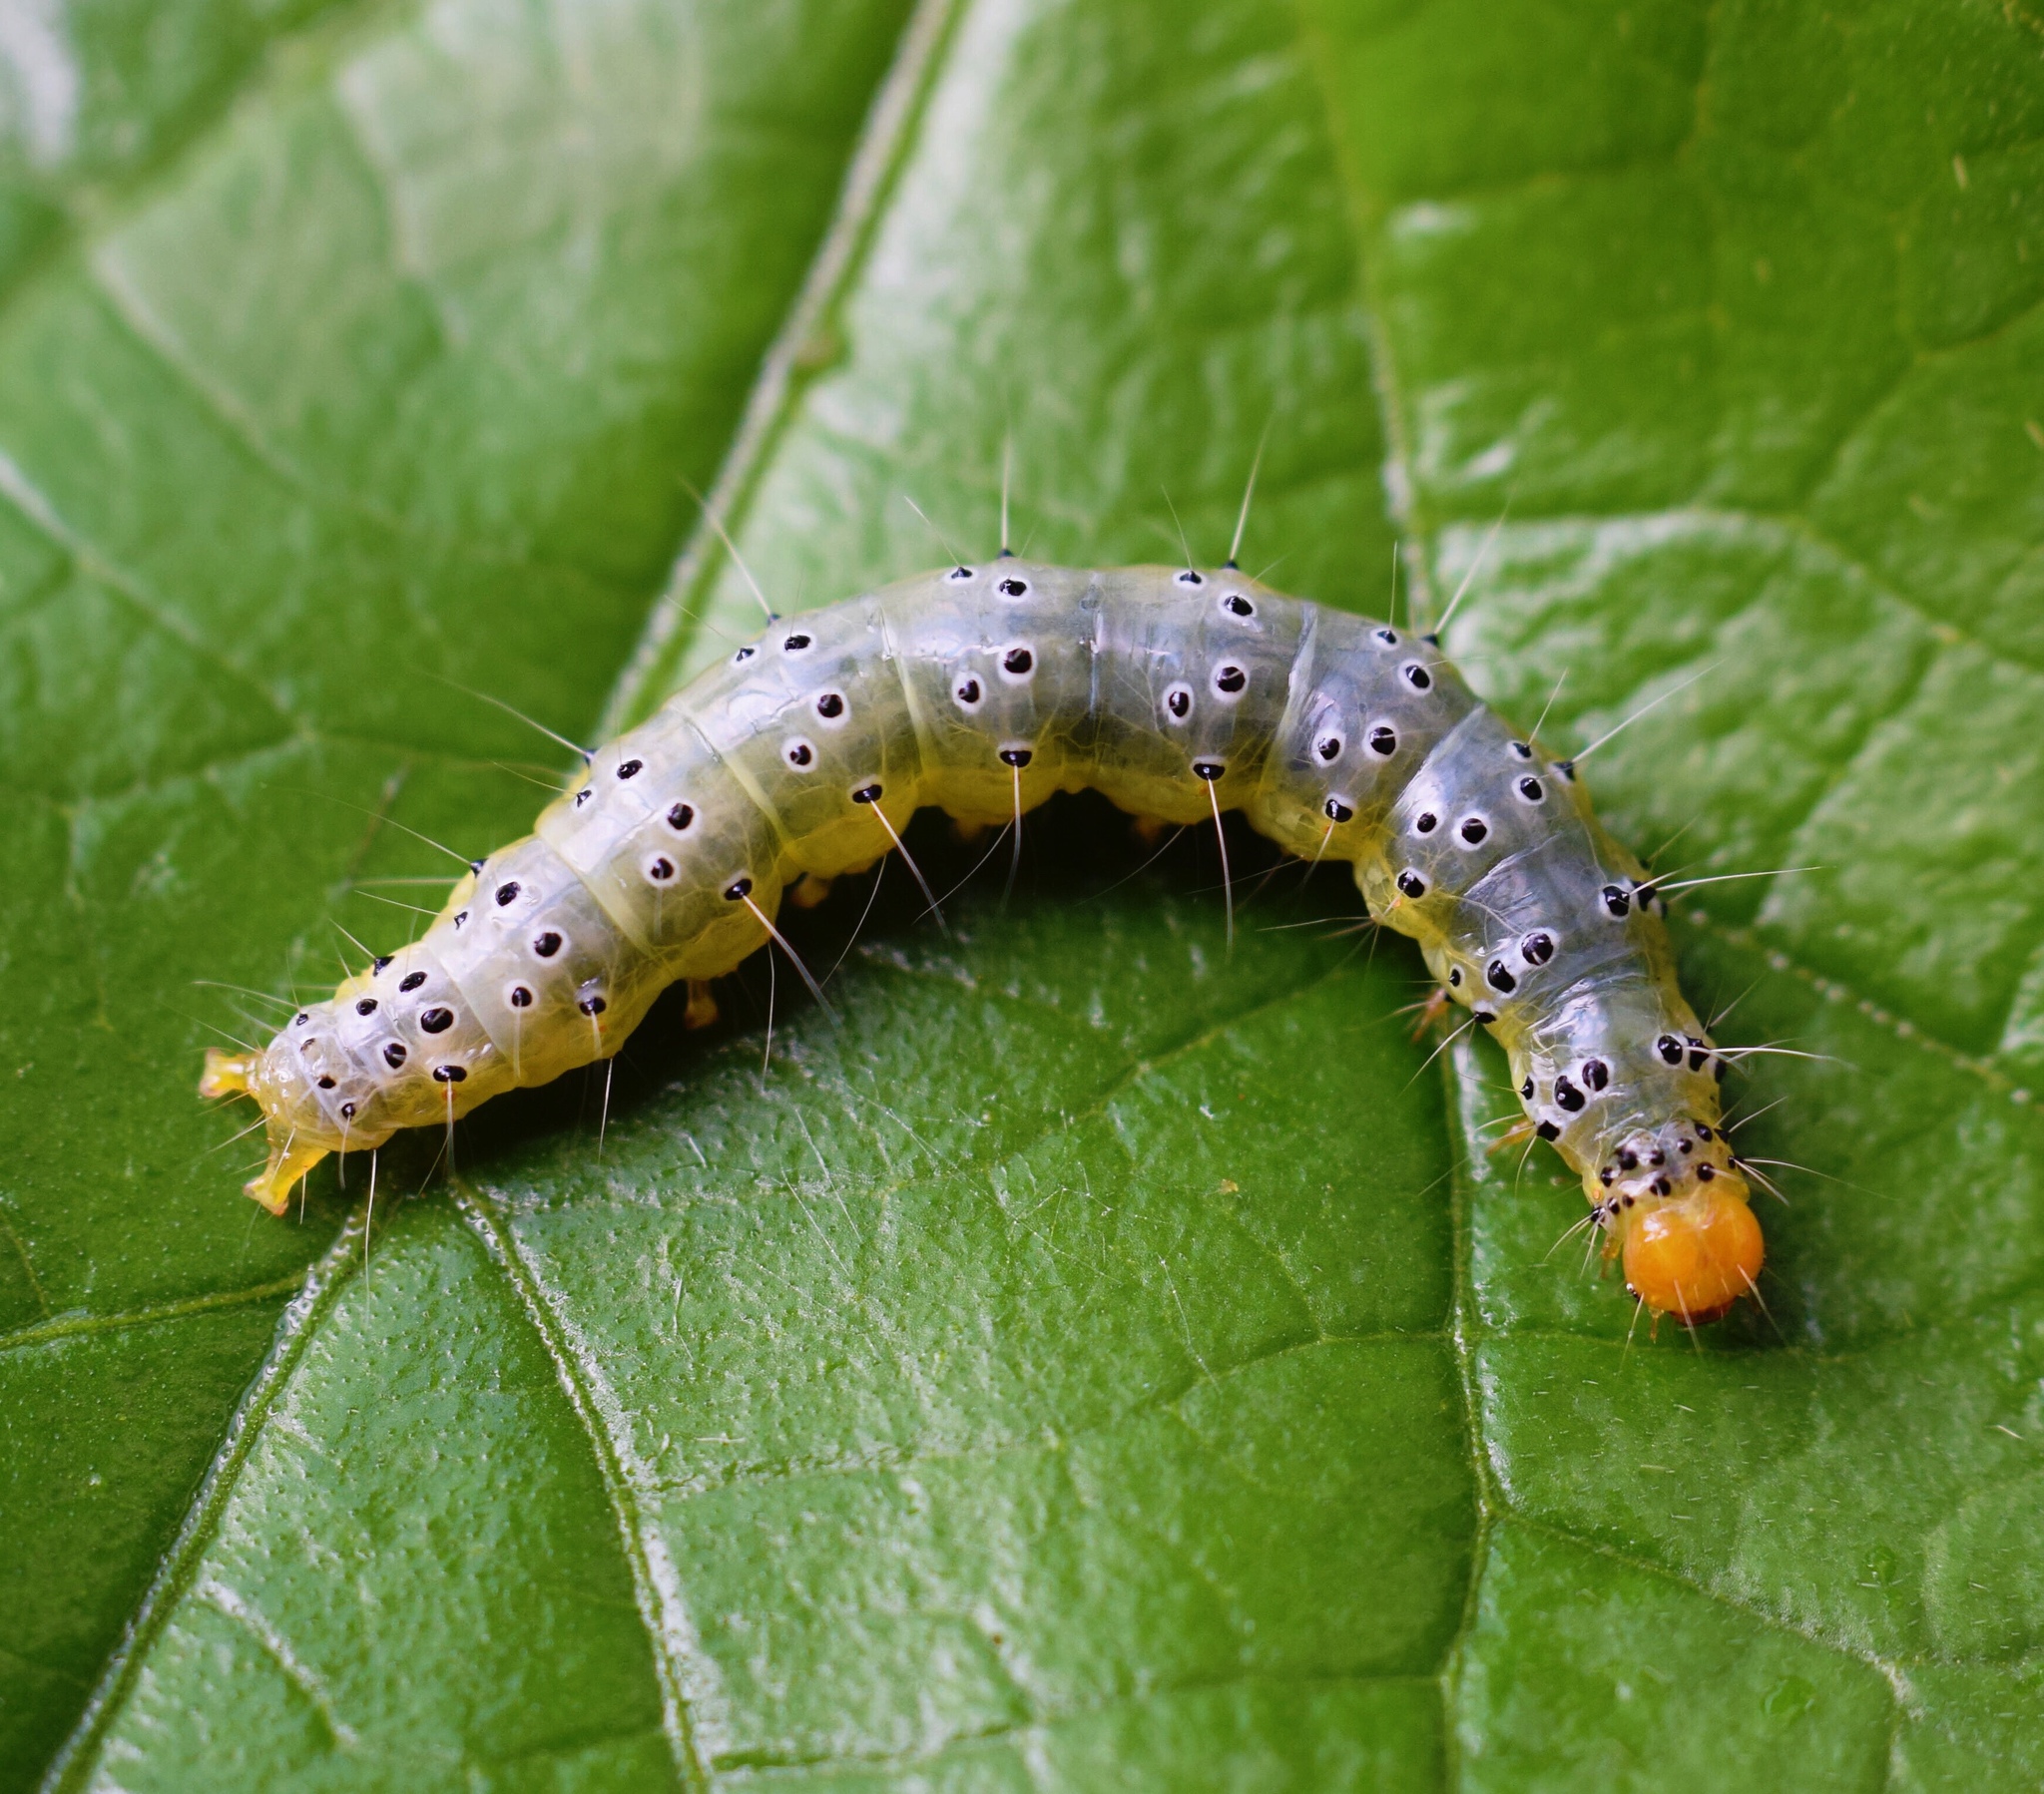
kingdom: Animalia
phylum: Arthropoda
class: Insecta
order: Lepidoptera
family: Crambidae
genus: Filodes
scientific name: Filodes costivitralis
